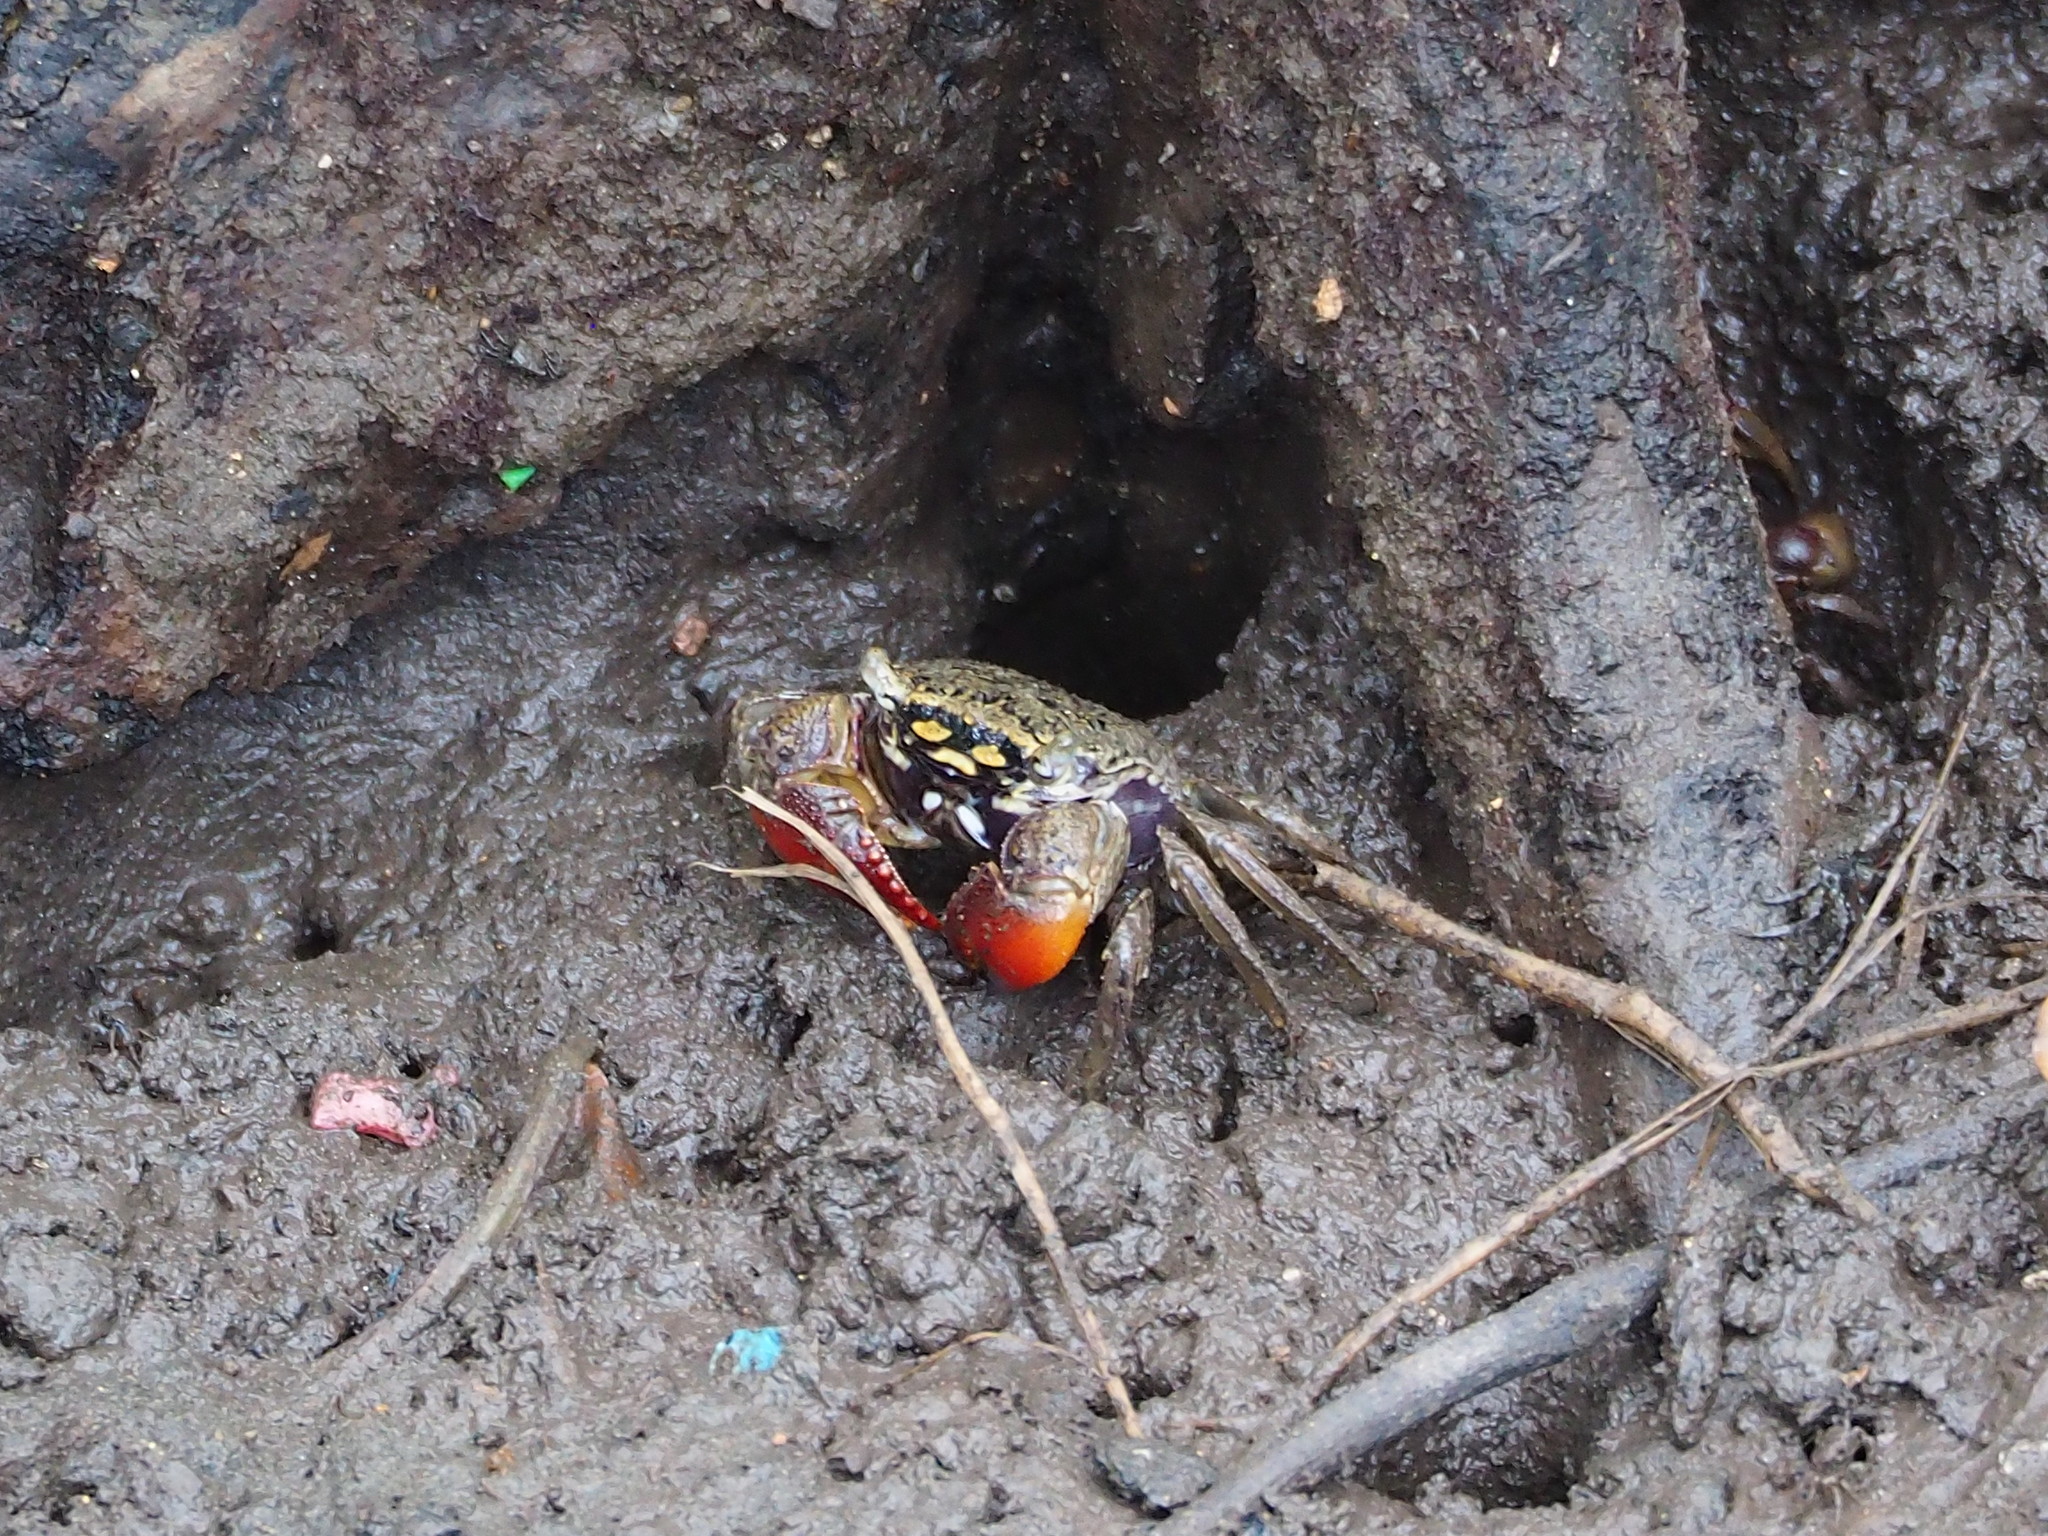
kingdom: Animalia
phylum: Arthropoda
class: Malacostraca
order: Decapoda
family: Sesarmidae
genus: Parasesarma
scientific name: Parasesarma affine
